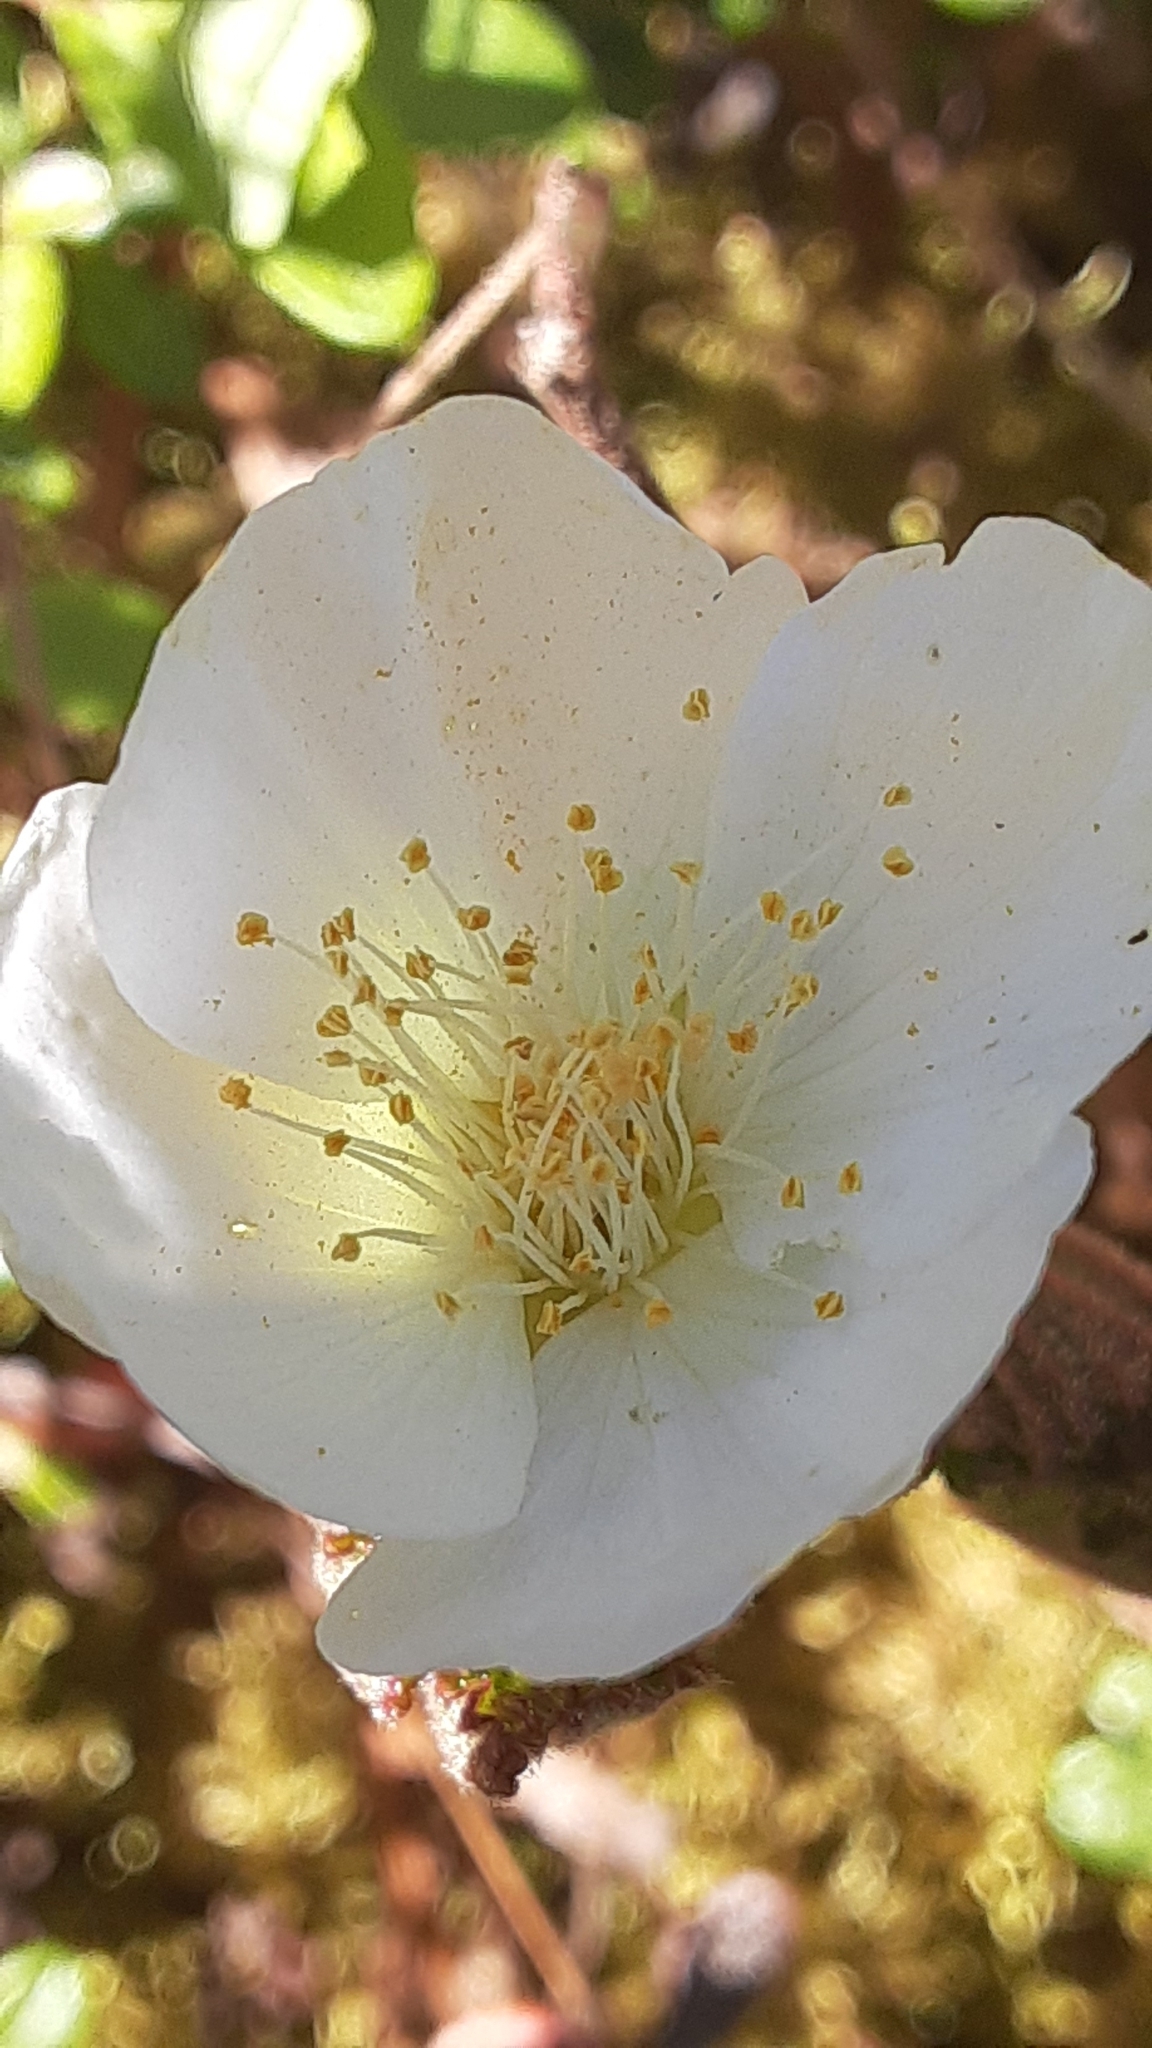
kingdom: Plantae
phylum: Tracheophyta
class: Magnoliopsida
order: Rosales
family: Rosaceae
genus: Rubus
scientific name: Rubus chamaemorus
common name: Cloudberry
